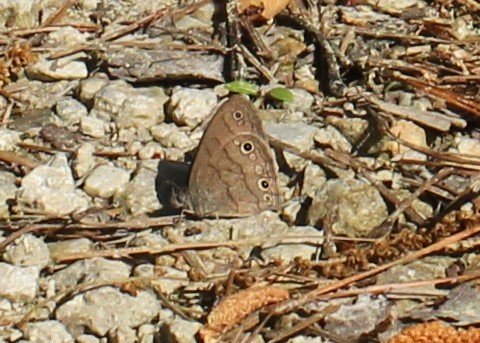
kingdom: Animalia
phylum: Arthropoda
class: Insecta
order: Lepidoptera
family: Nymphalidae
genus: Hermeuptychia
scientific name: Hermeuptychia hermes
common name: Hermes satyr
